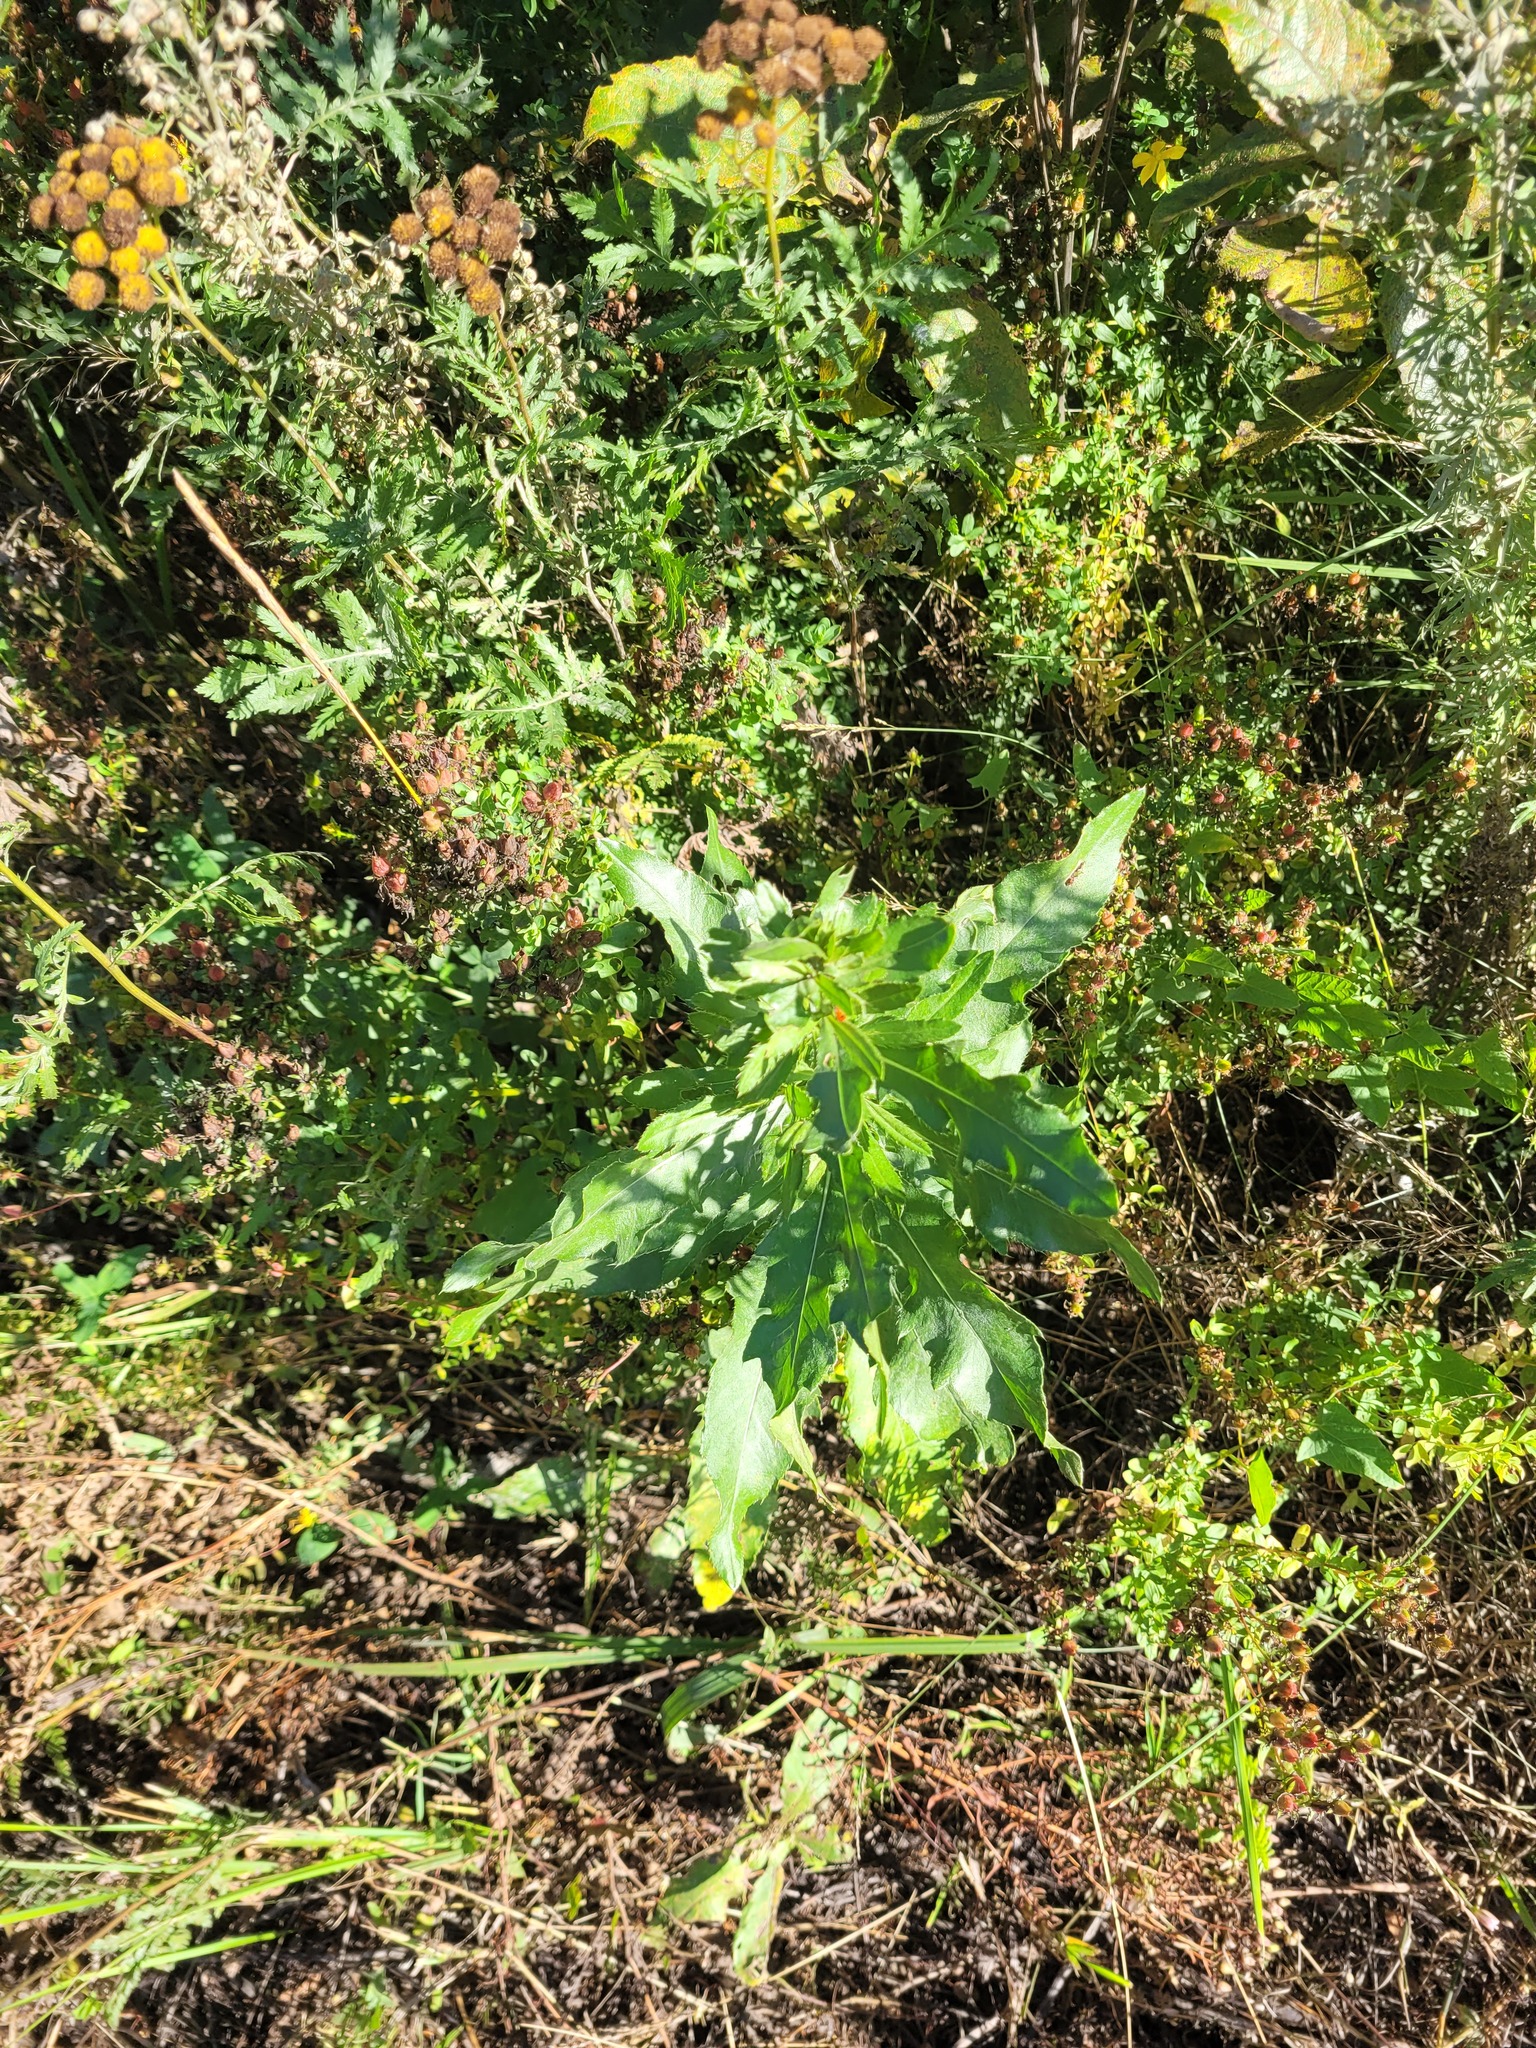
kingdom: Plantae
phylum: Tracheophyta
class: Magnoliopsida
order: Asterales
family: Asteraceae
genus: Cirsium
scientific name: Cirsium arvense
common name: Creeping thistle
